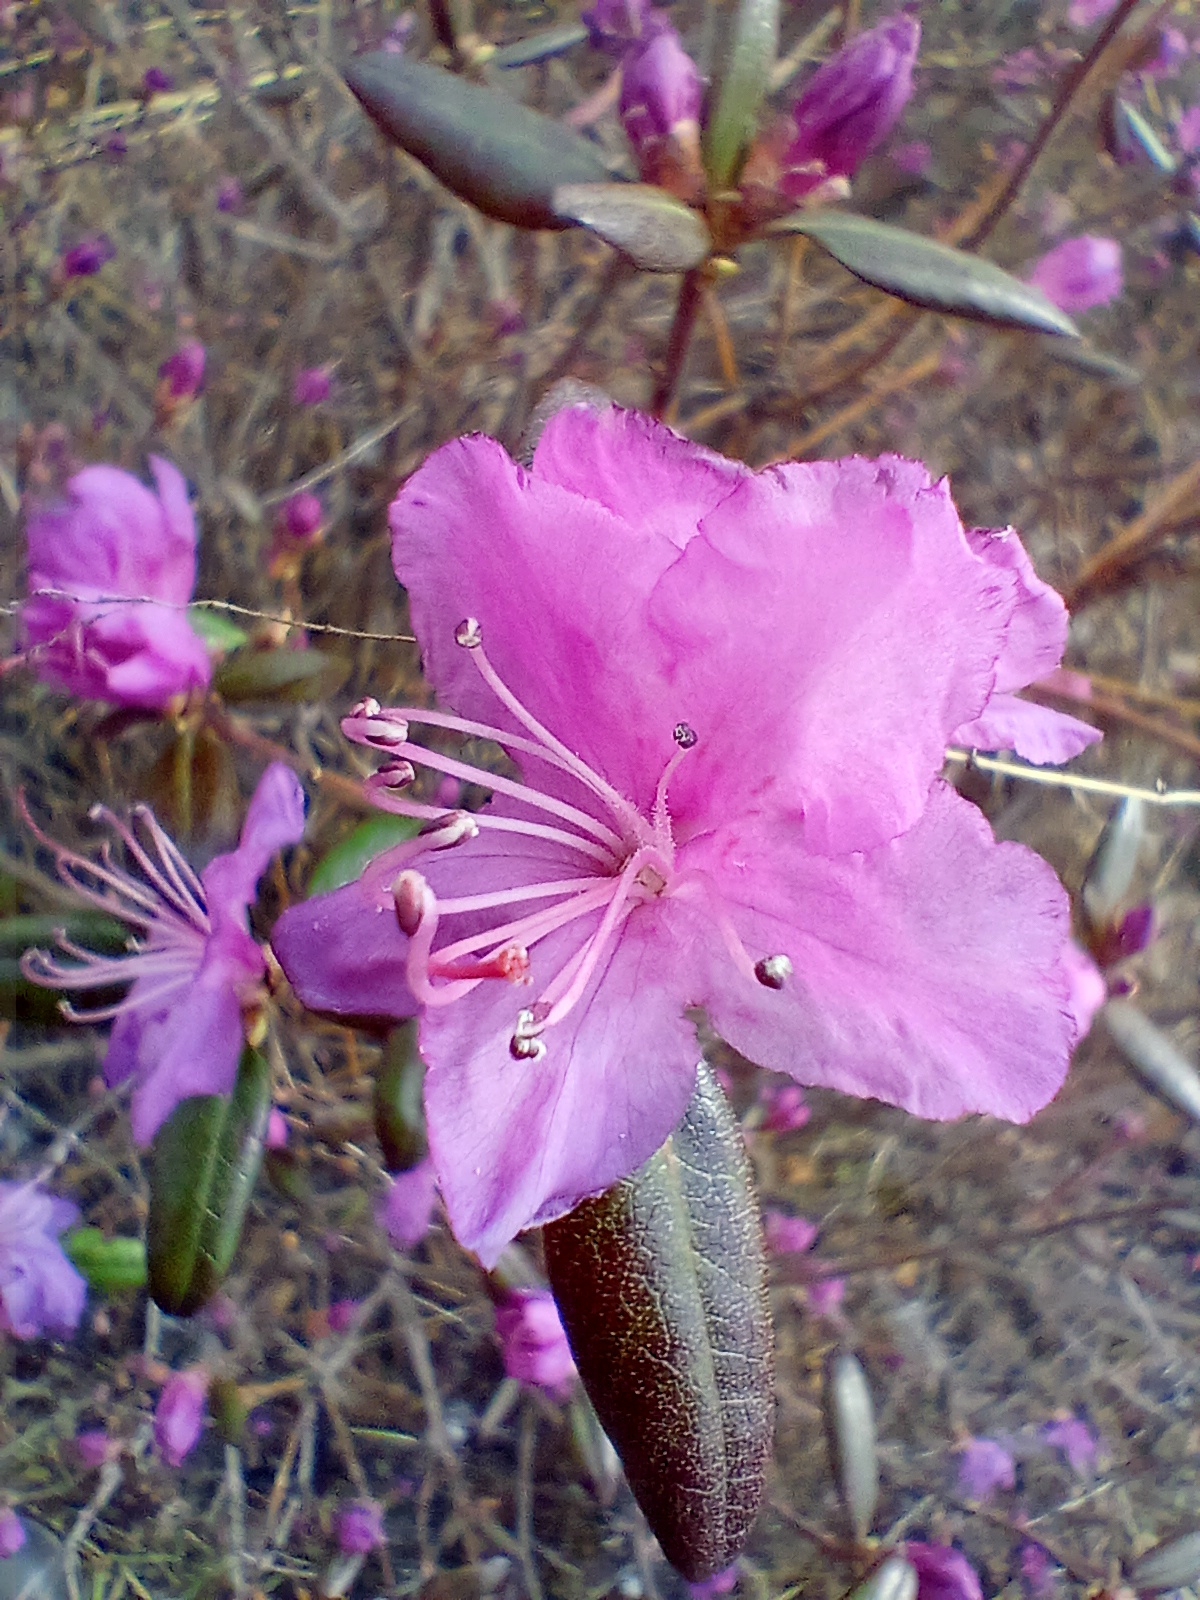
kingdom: Plantae
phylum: Tracheophyta
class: Magnoliopsida
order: Ericales
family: Ericaceae
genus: Rhododendron
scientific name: Rhododendron dauricum
